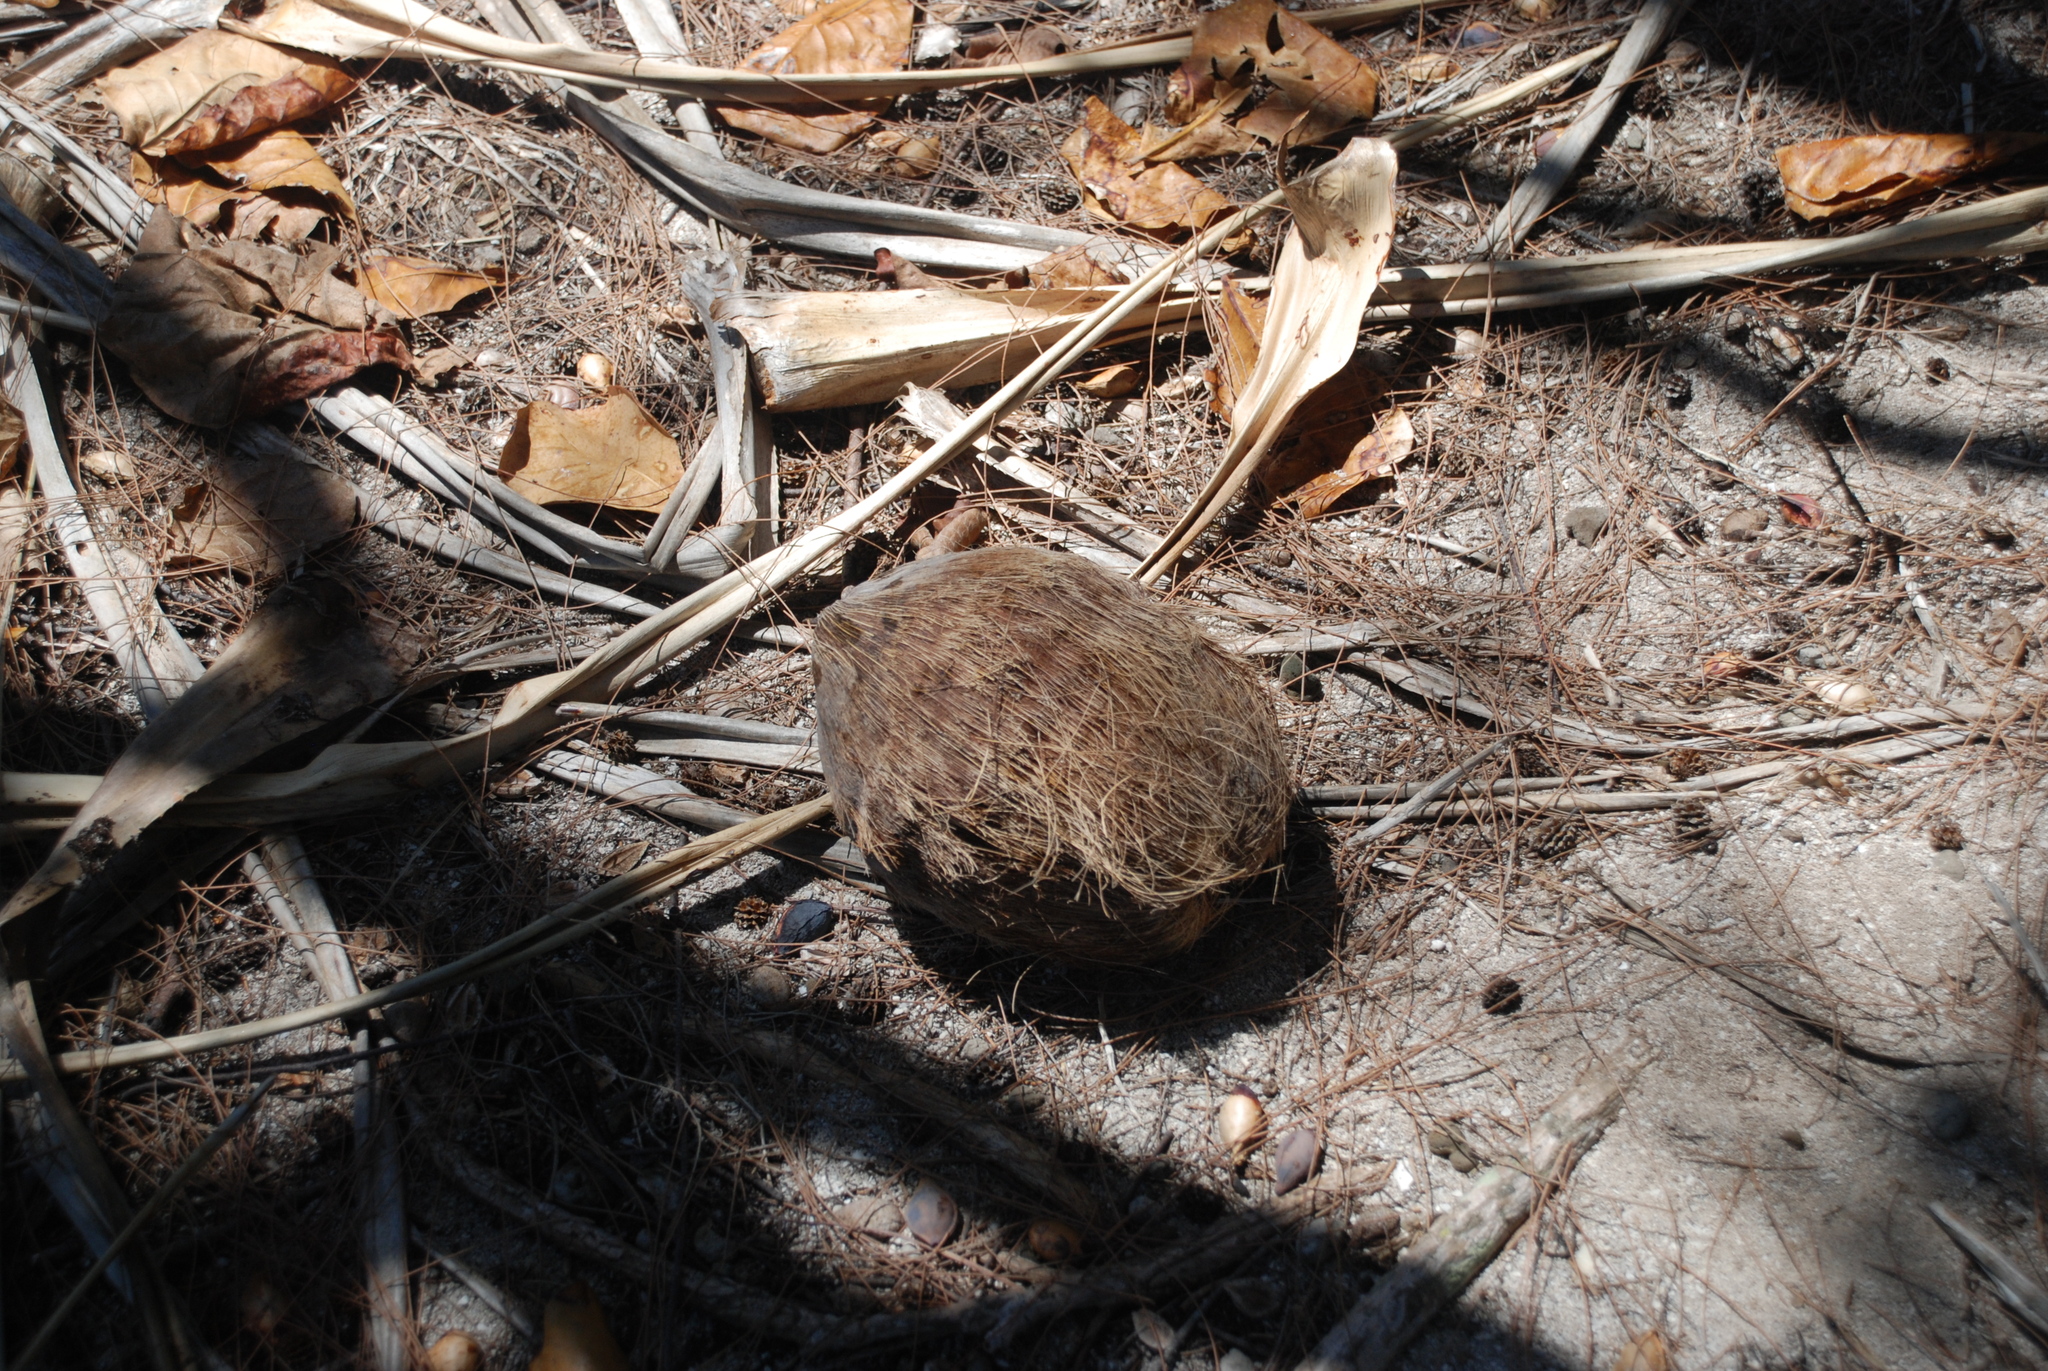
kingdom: Plantae
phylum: Tracheophyta
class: Liliopsida
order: Arecales
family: Arecaceae
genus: Cocos
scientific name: Cocos nucifera
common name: Coconut palm
